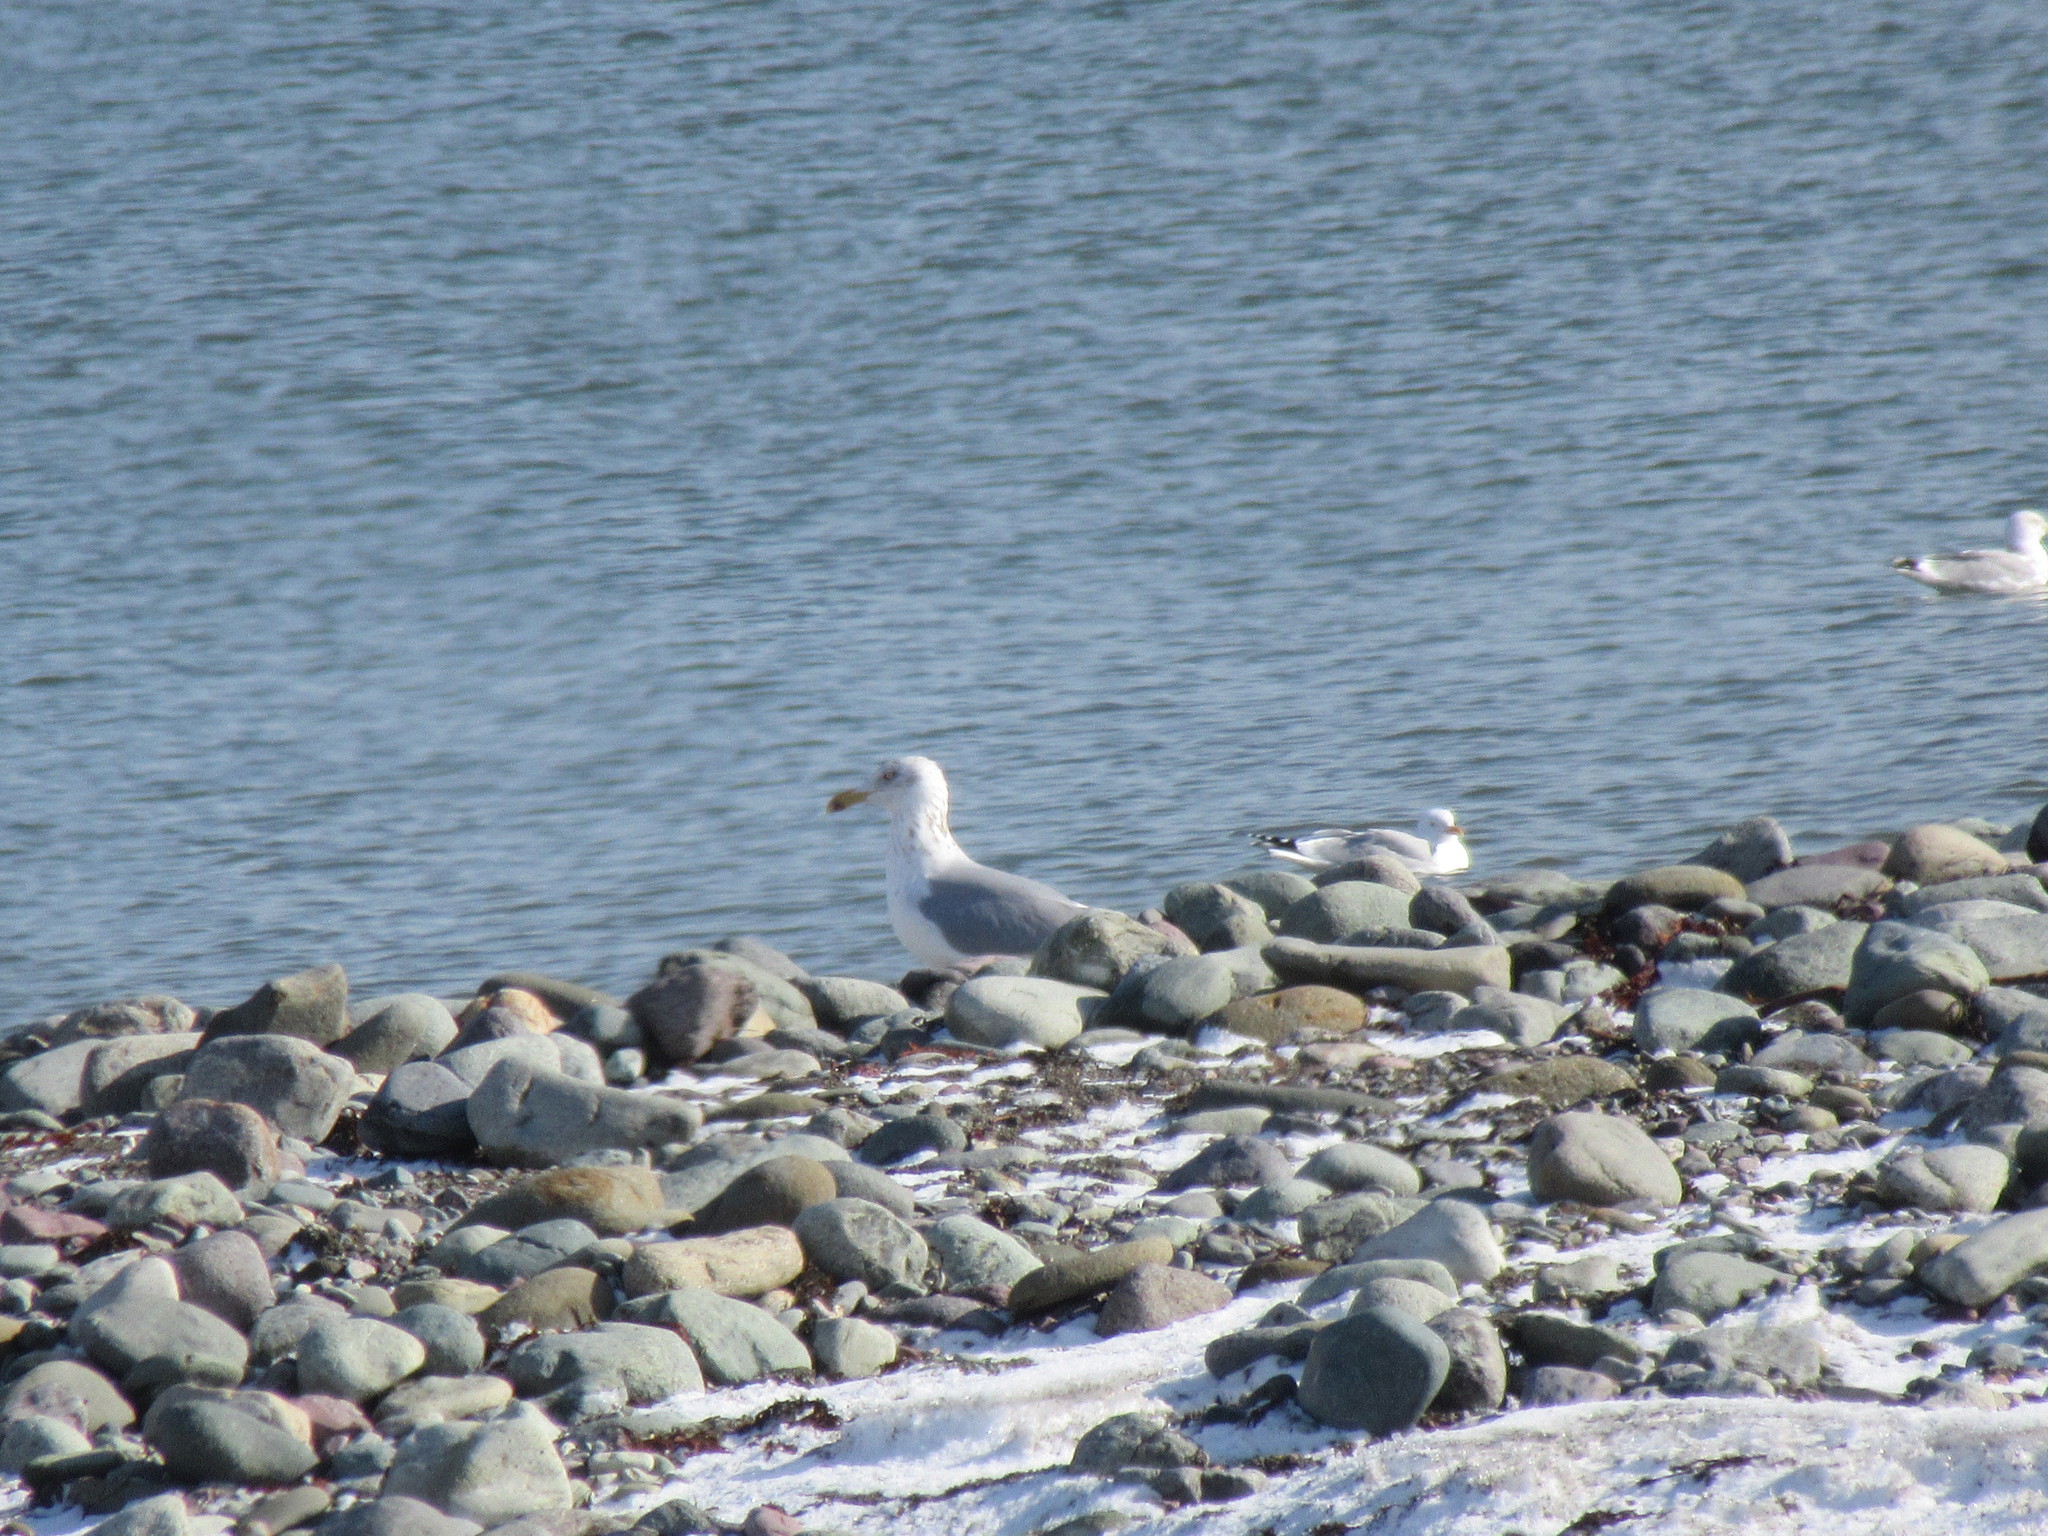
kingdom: Animalia
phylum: Chordata
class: Aves
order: Charadriiformes
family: Laridae
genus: Larus
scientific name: Larus argentatus
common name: Herring gull
